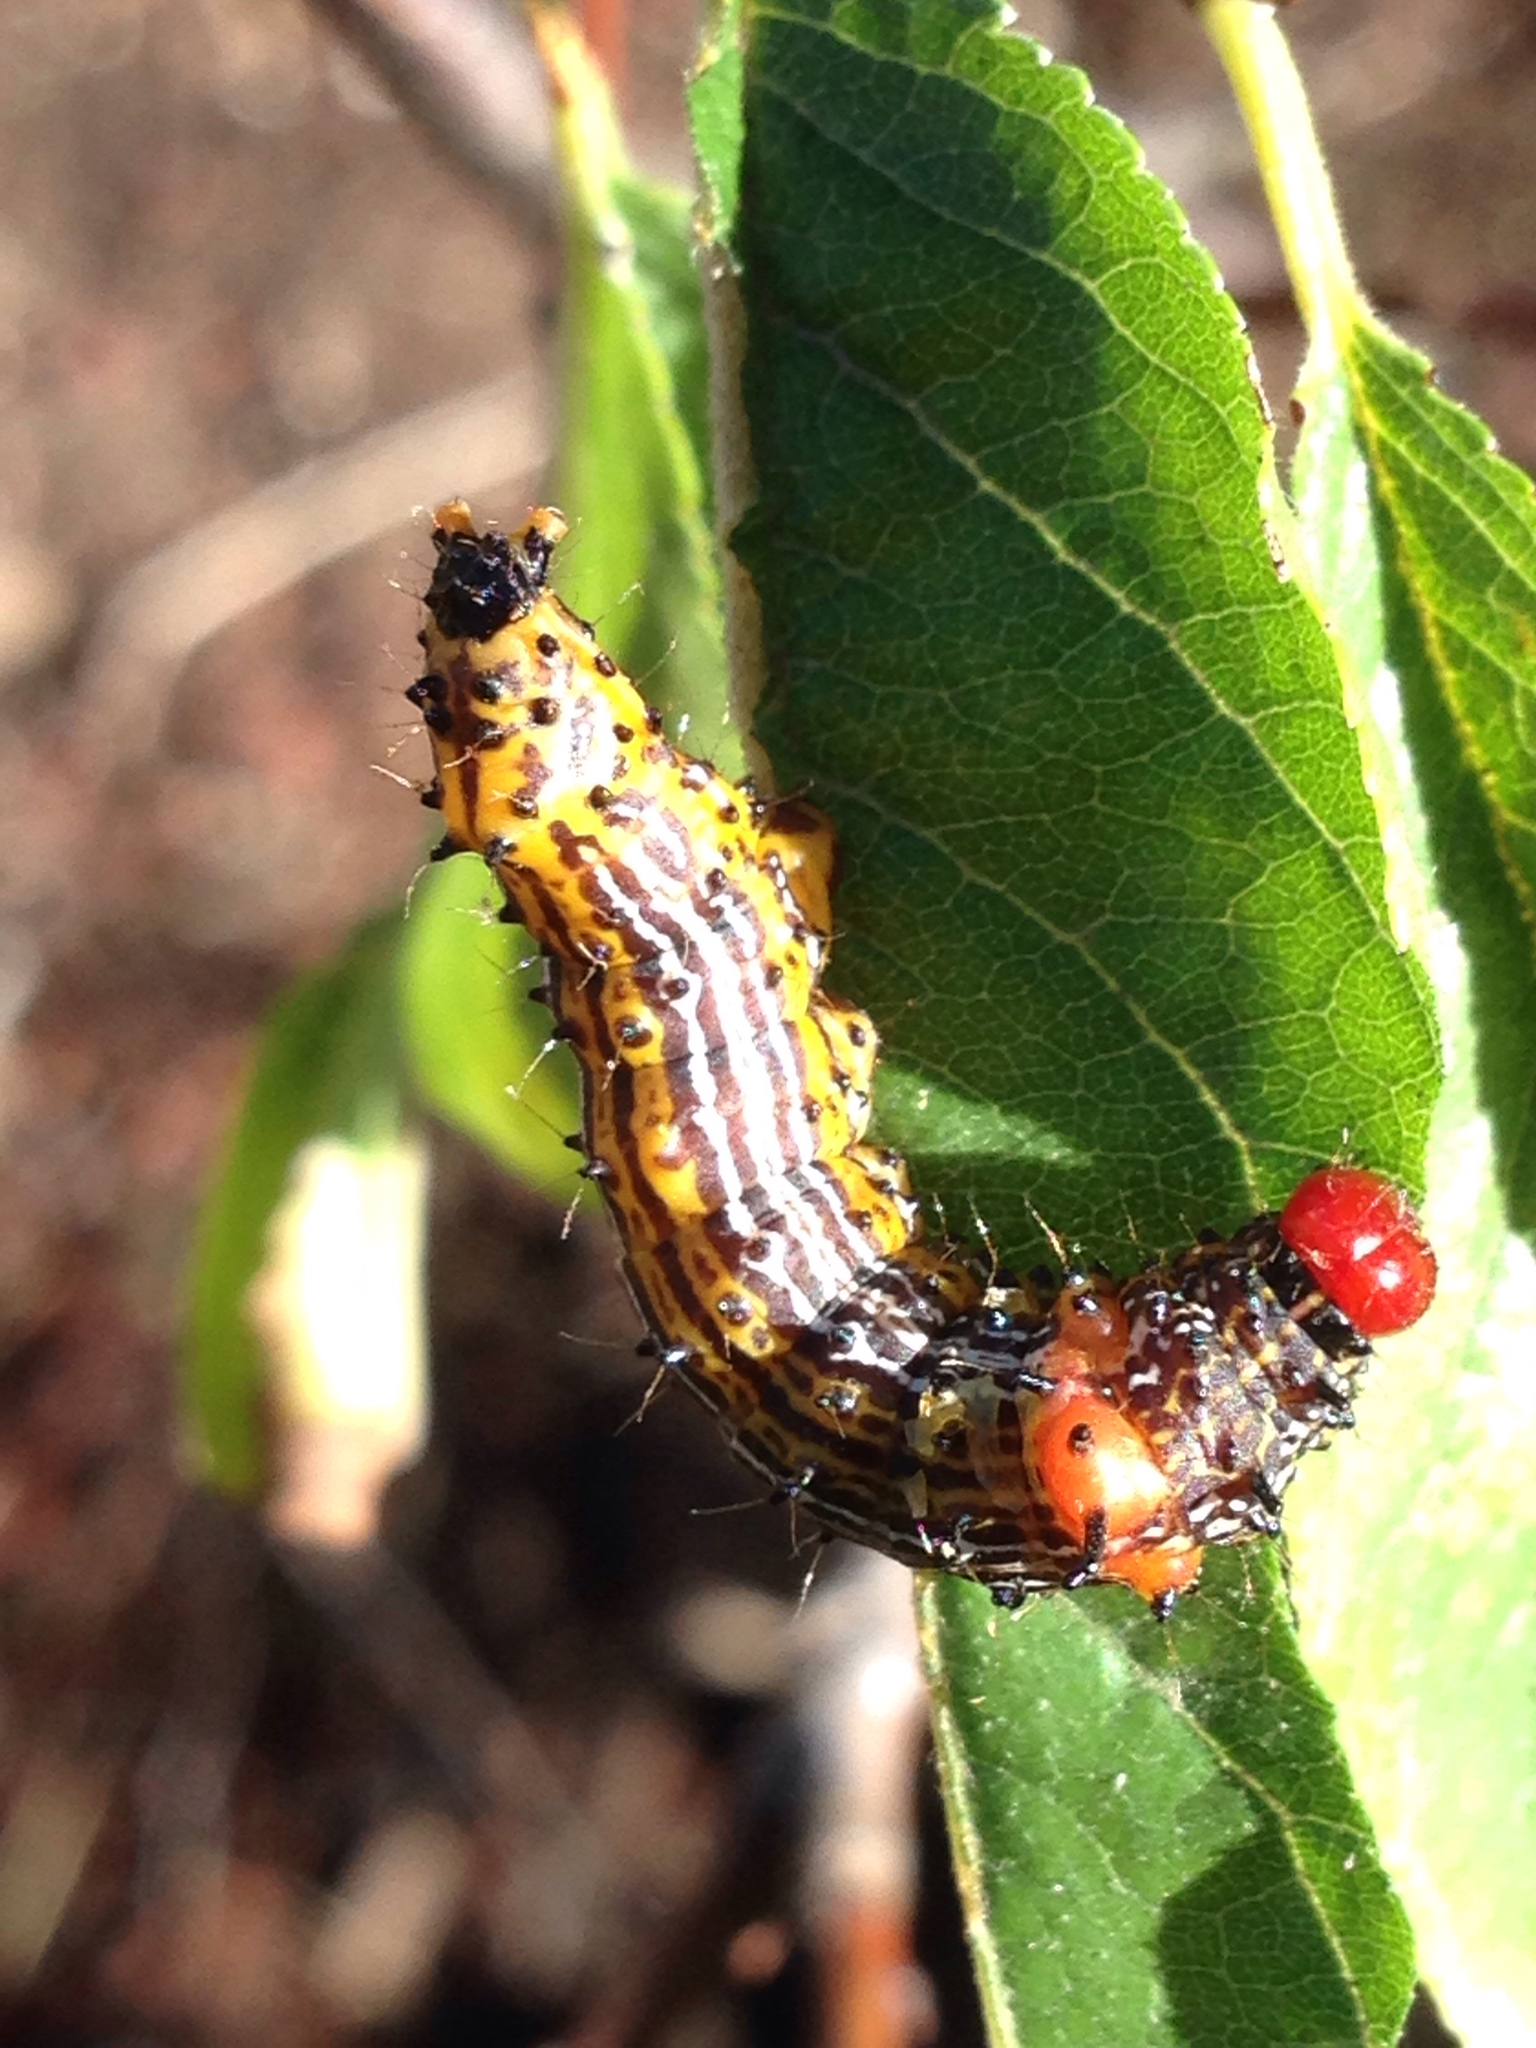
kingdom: Animalia
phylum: Arthropoda
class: Insecta
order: Lepidoptera
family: Notodontidae
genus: Schizura
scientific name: Schizura
